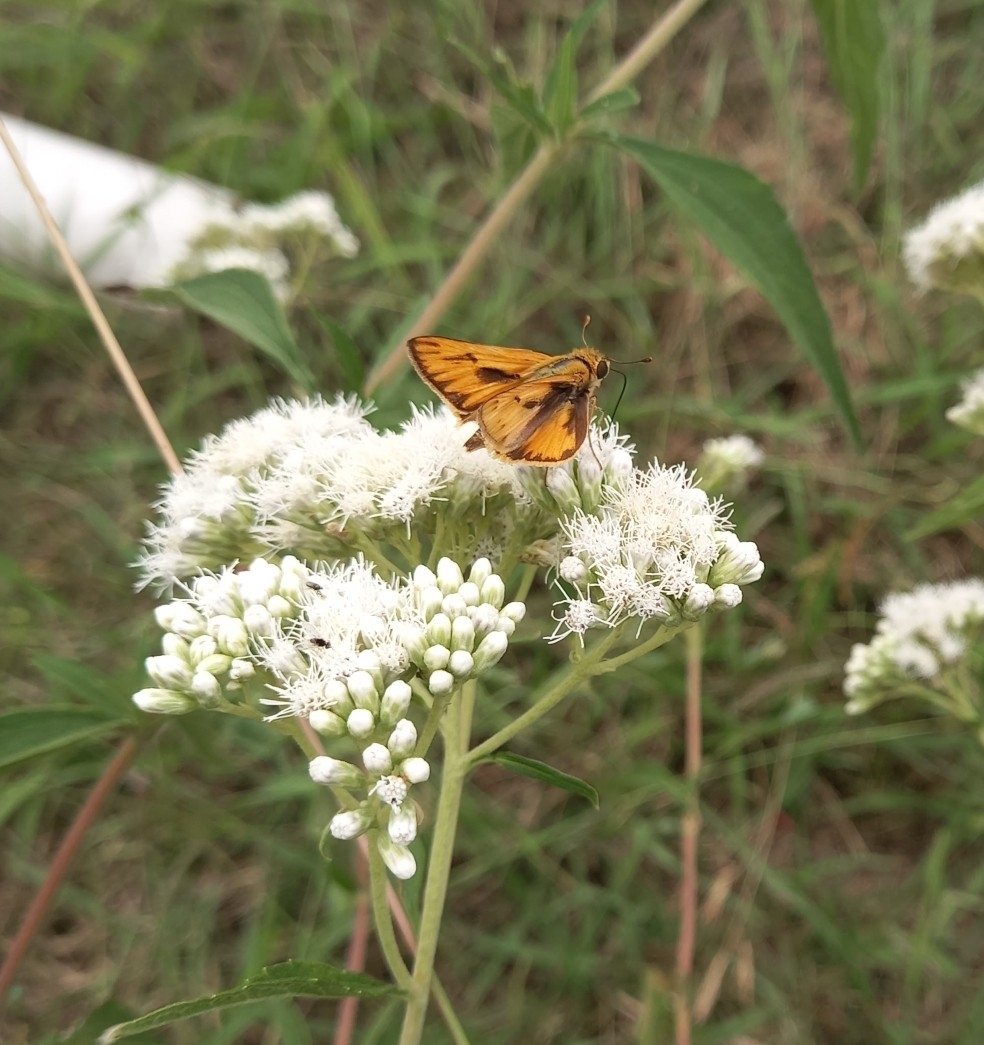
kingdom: Animalia
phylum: Arthropoda
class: Insecta
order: Lepidoptera
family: Hesperiidae
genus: Hylephila
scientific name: Hylephila phyleus
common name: Fiery skipper
